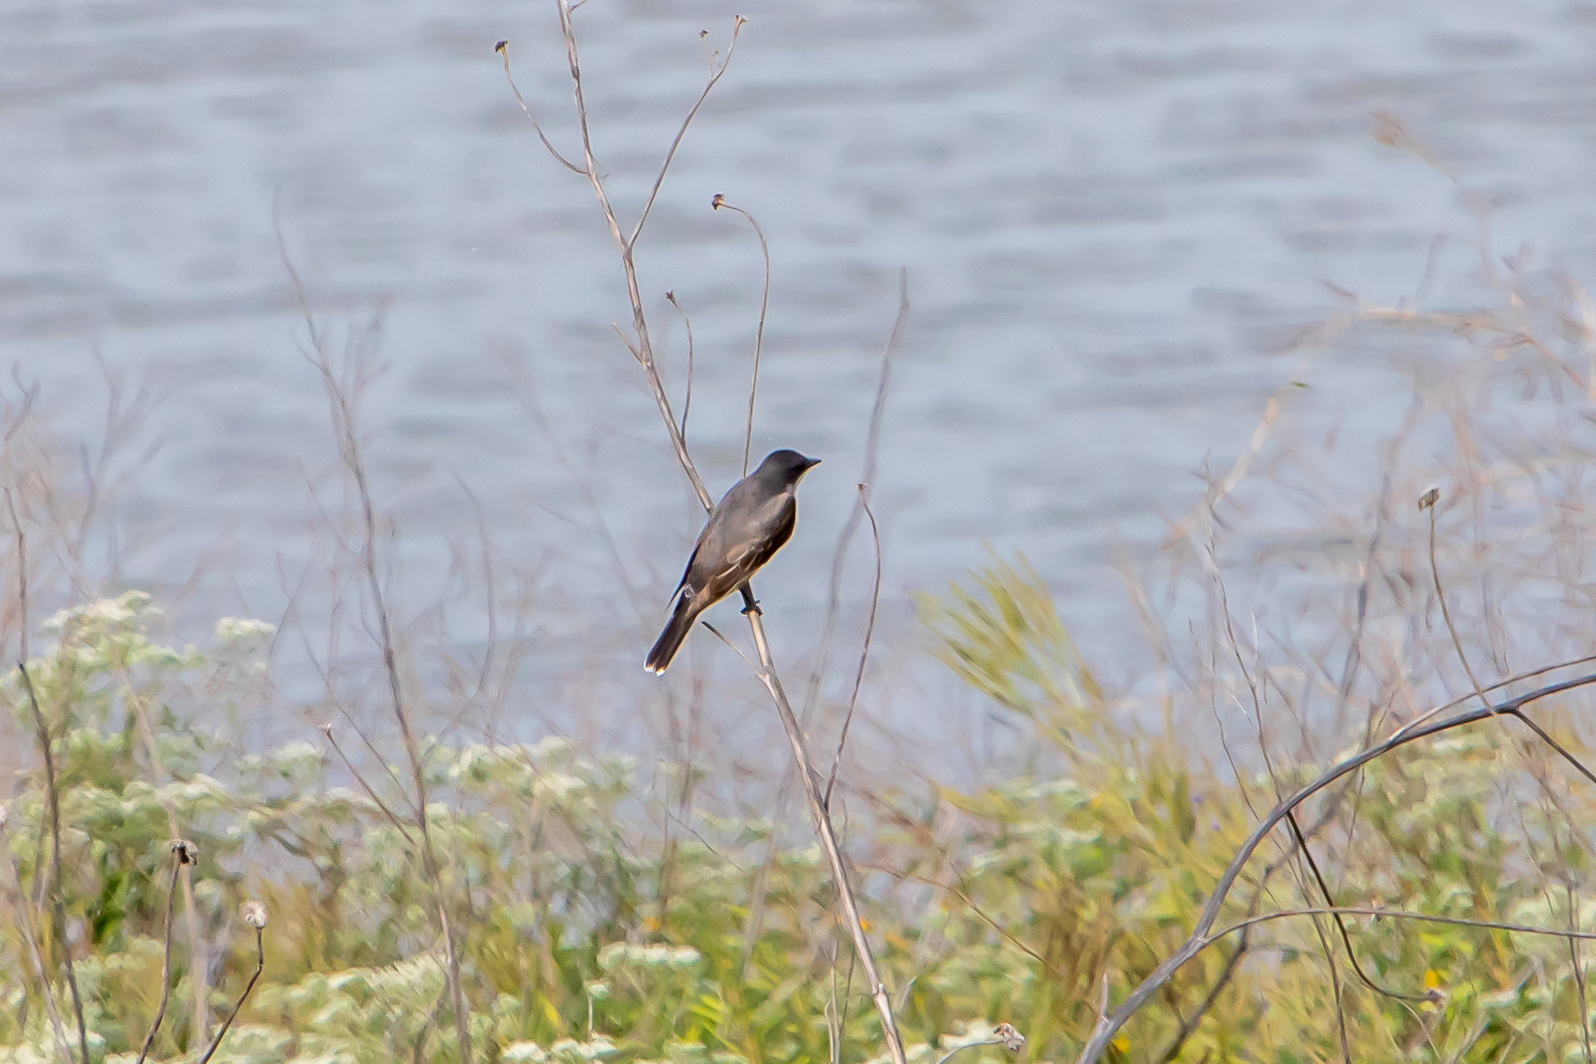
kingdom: Animalia
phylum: Chordata
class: Aves
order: Passeriformes
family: Tyrannidae
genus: Tyrannus
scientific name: Tyrannus tyrannus
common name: Eastern kingbird
